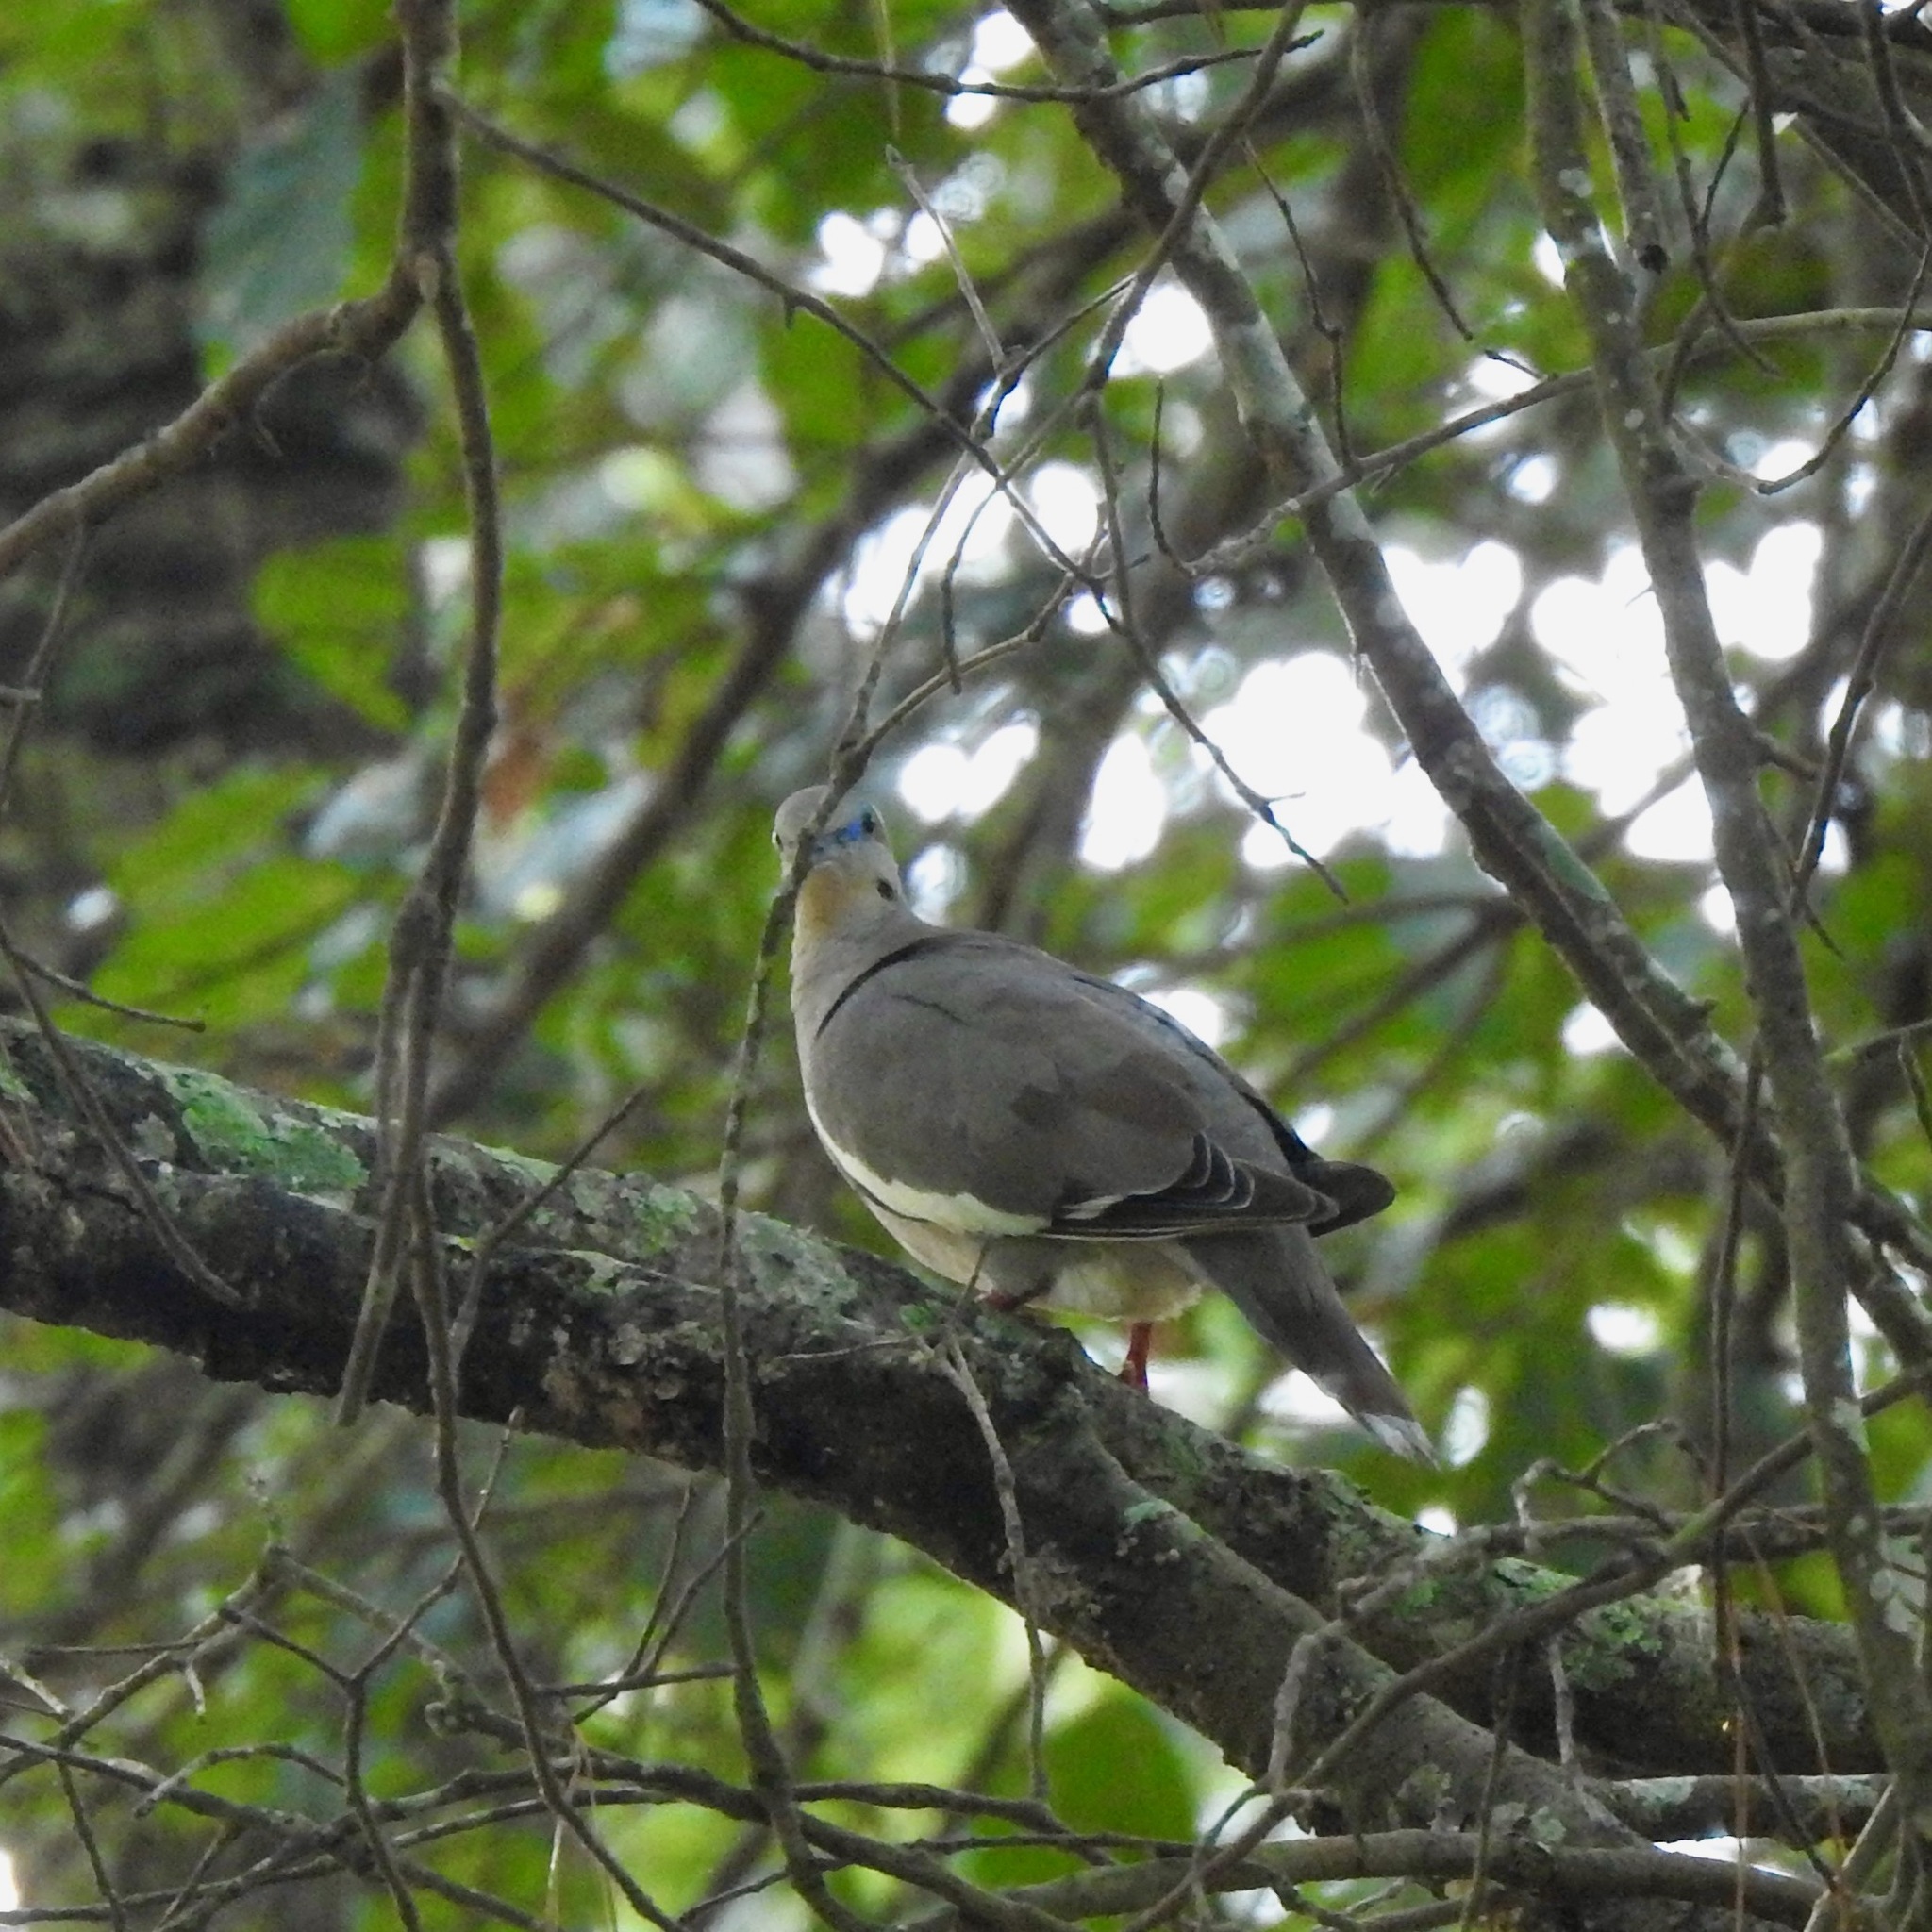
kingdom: Animalia
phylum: Chordata
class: Aves
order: Columbiformes
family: Columbidae
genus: Zenaida
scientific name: Zenaida asiatica
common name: White-winged dove
